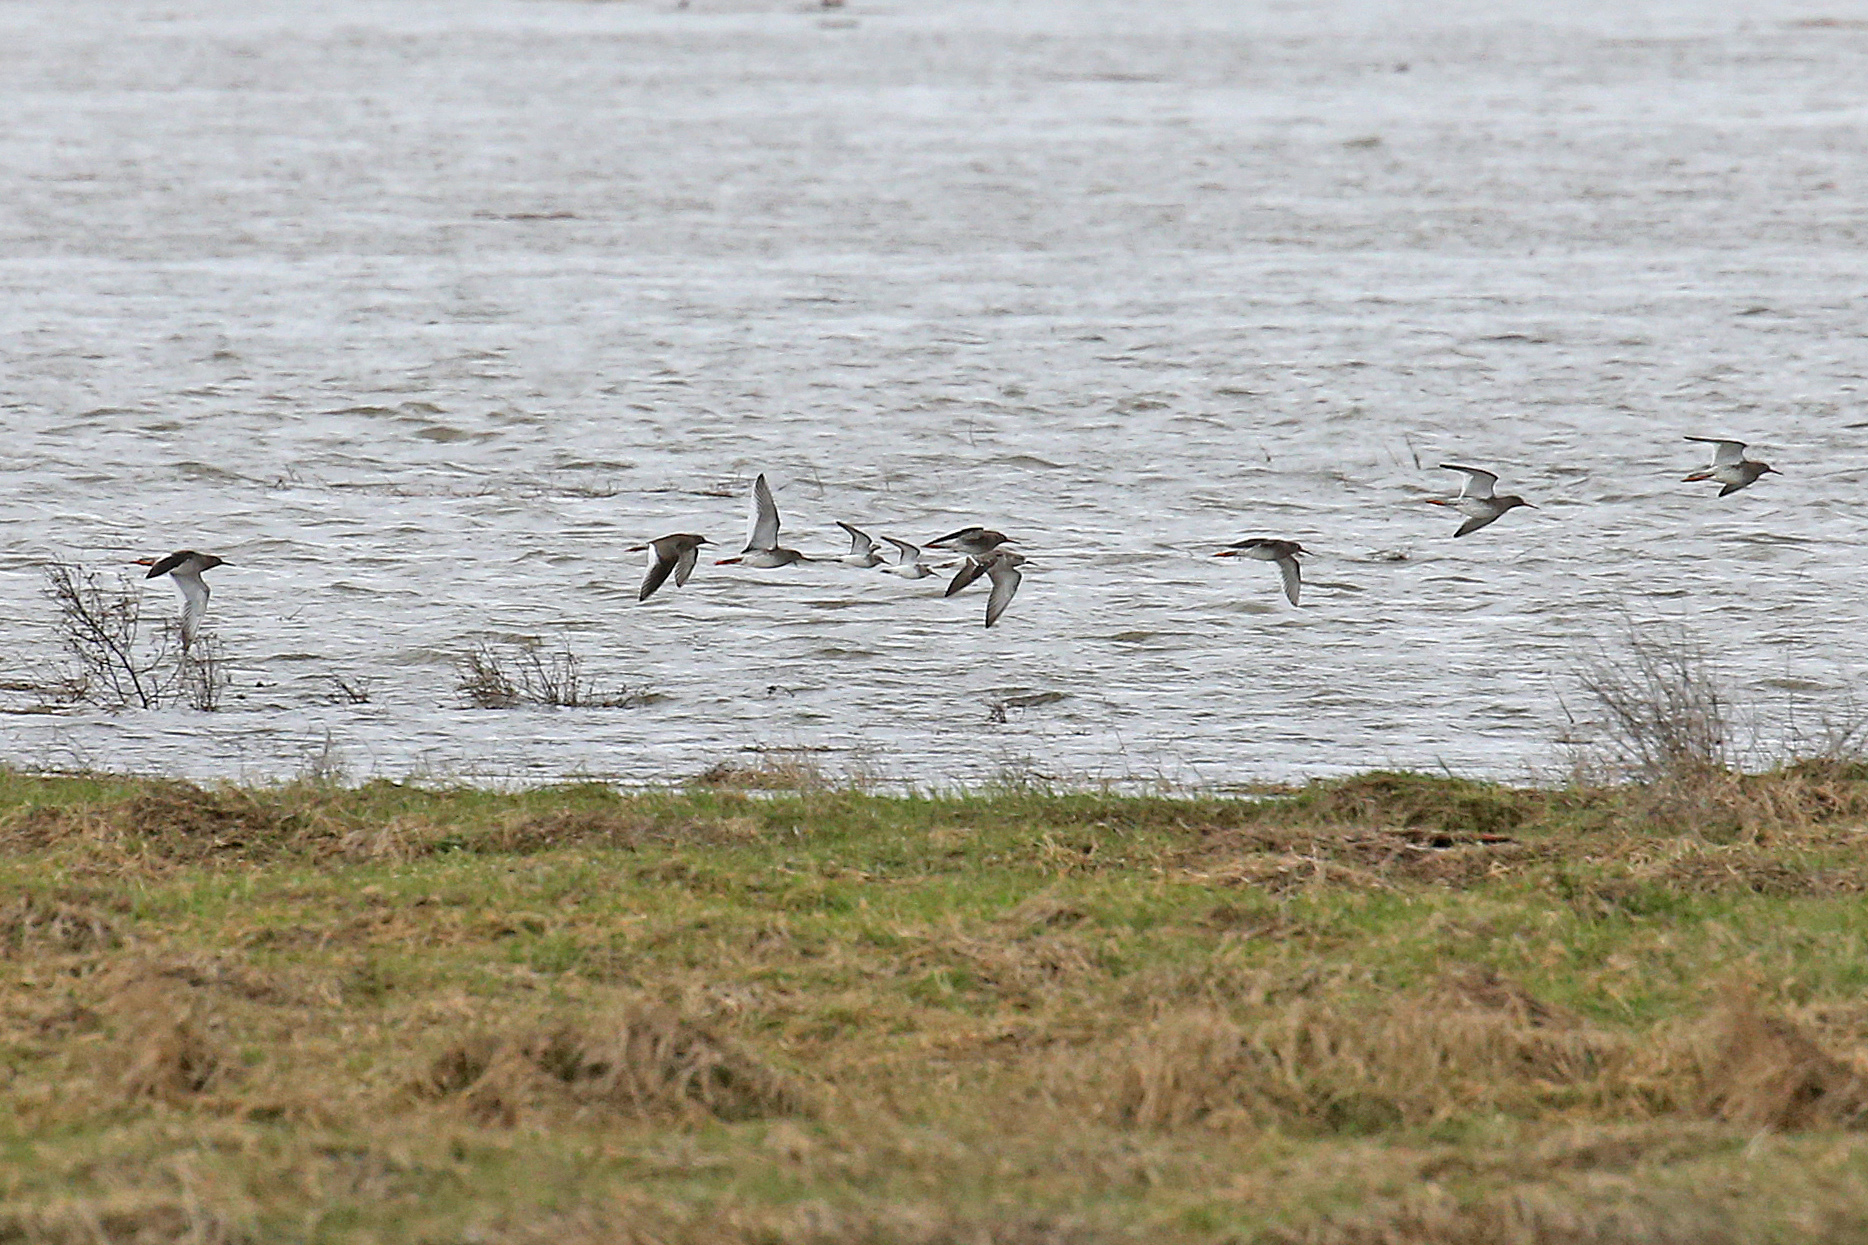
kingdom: Animalia
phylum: Chordata
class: Aves
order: Charadriiformes
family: Scolopacidae
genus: Calidris
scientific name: Calidris alpina
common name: Dunlin
